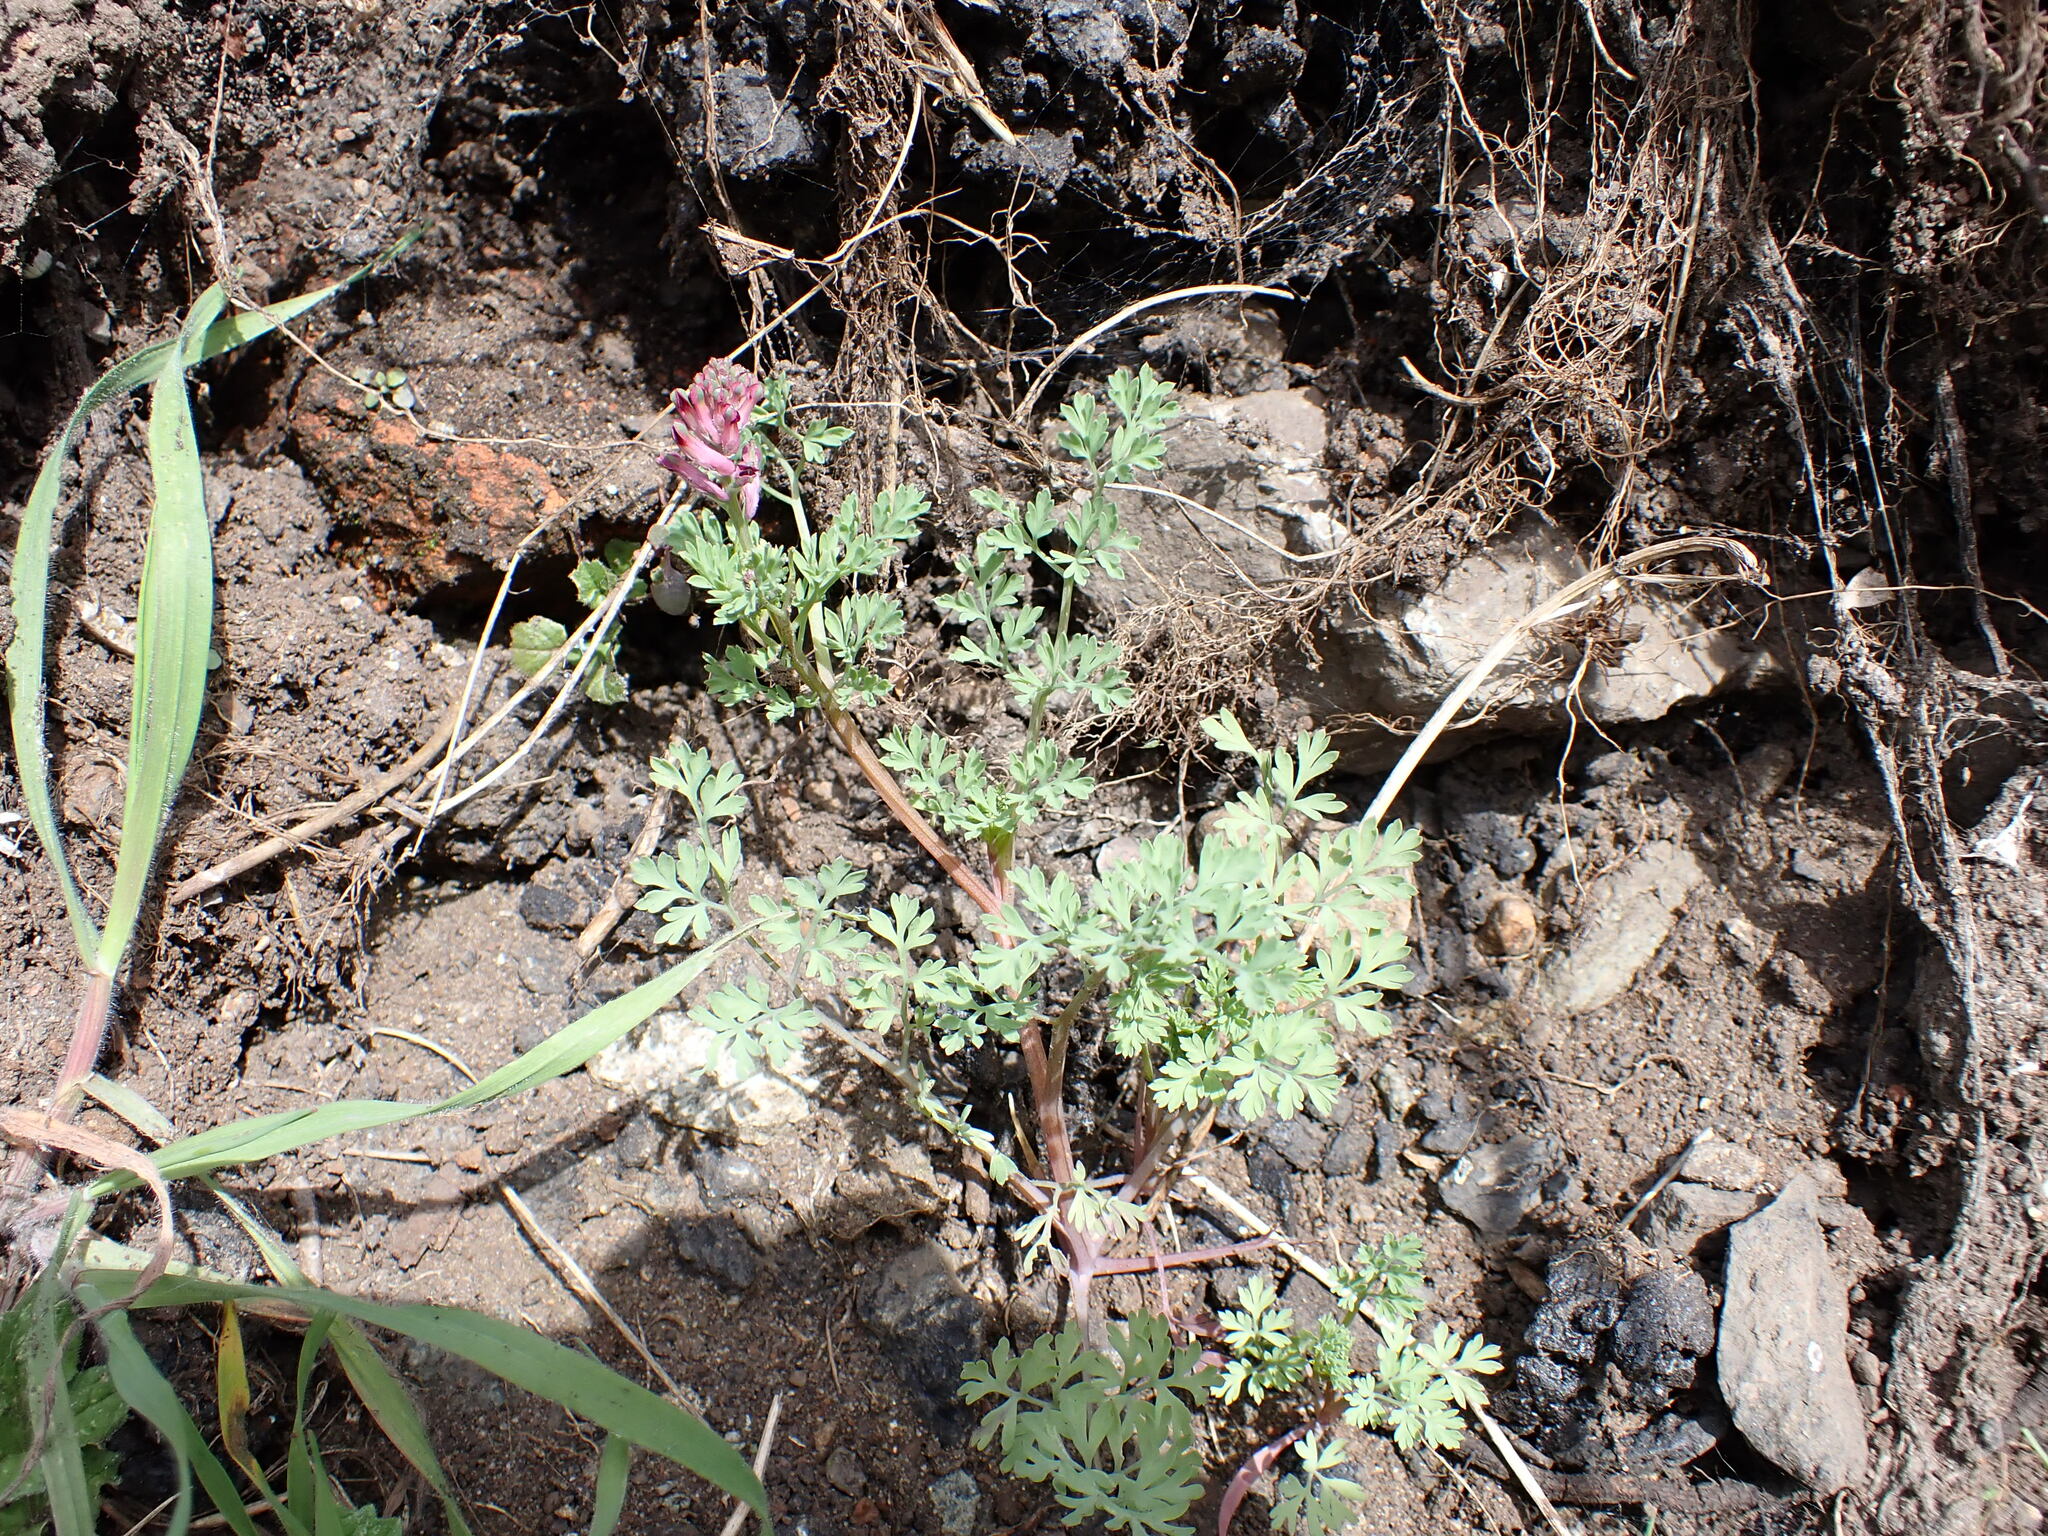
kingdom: Plantae
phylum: Tracheophyta
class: Magnoliopsida
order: Ranunculales
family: Papaveraceae
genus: Fumaria
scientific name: Fumaria officinalis
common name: Common fumitory
